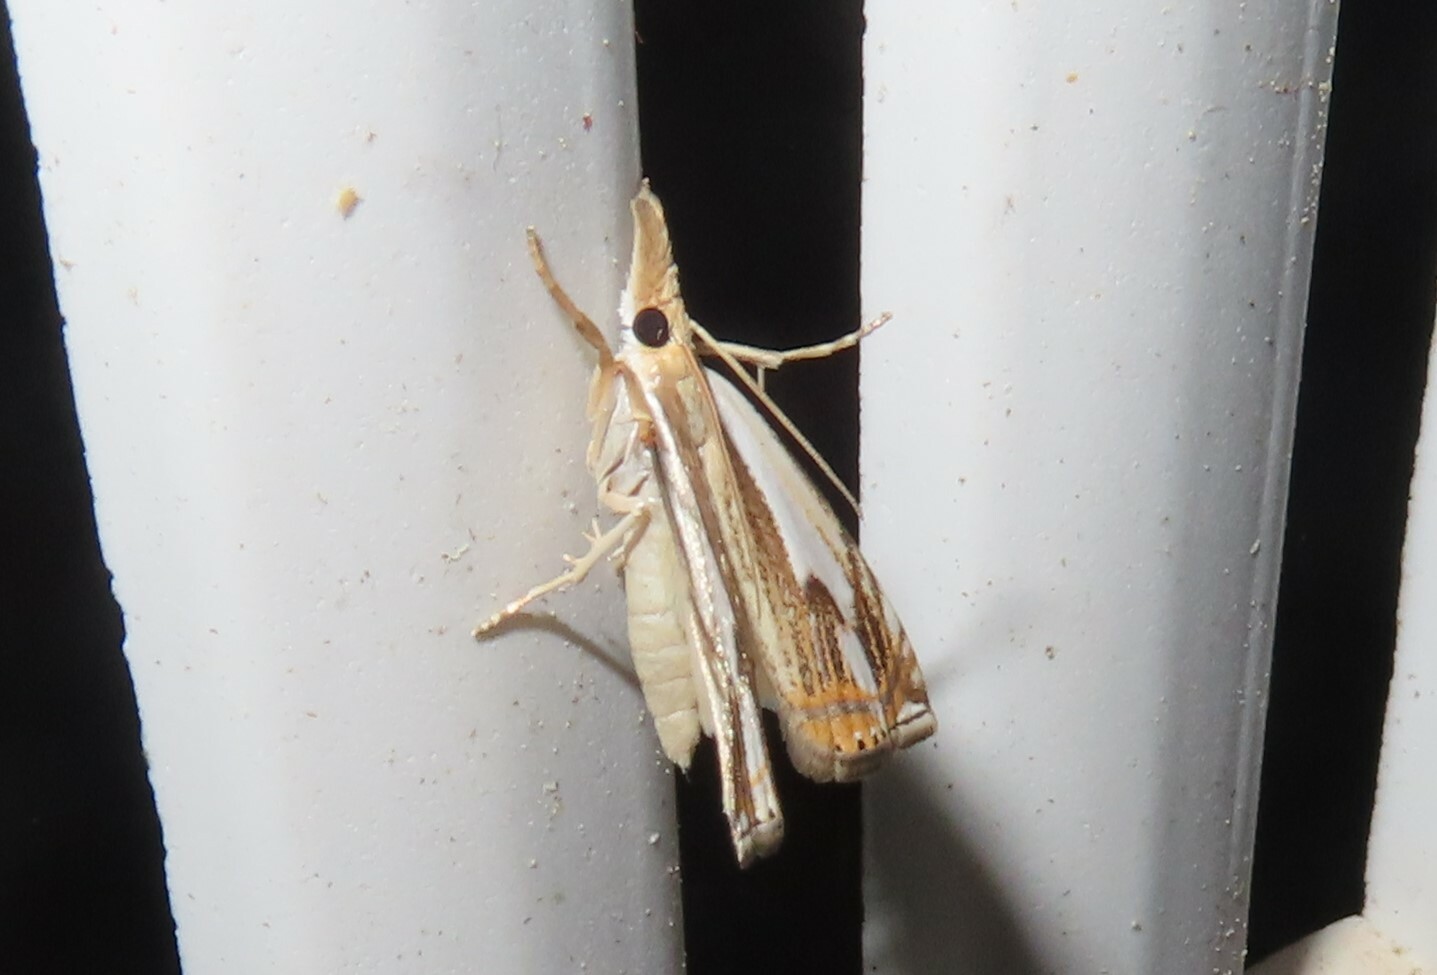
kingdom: Animalia
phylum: Arthropoda
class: Insecta
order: Lepidoptera
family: Crambidae
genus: Crambus
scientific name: Crambus agitatellus
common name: Double-banded grass-veneer
